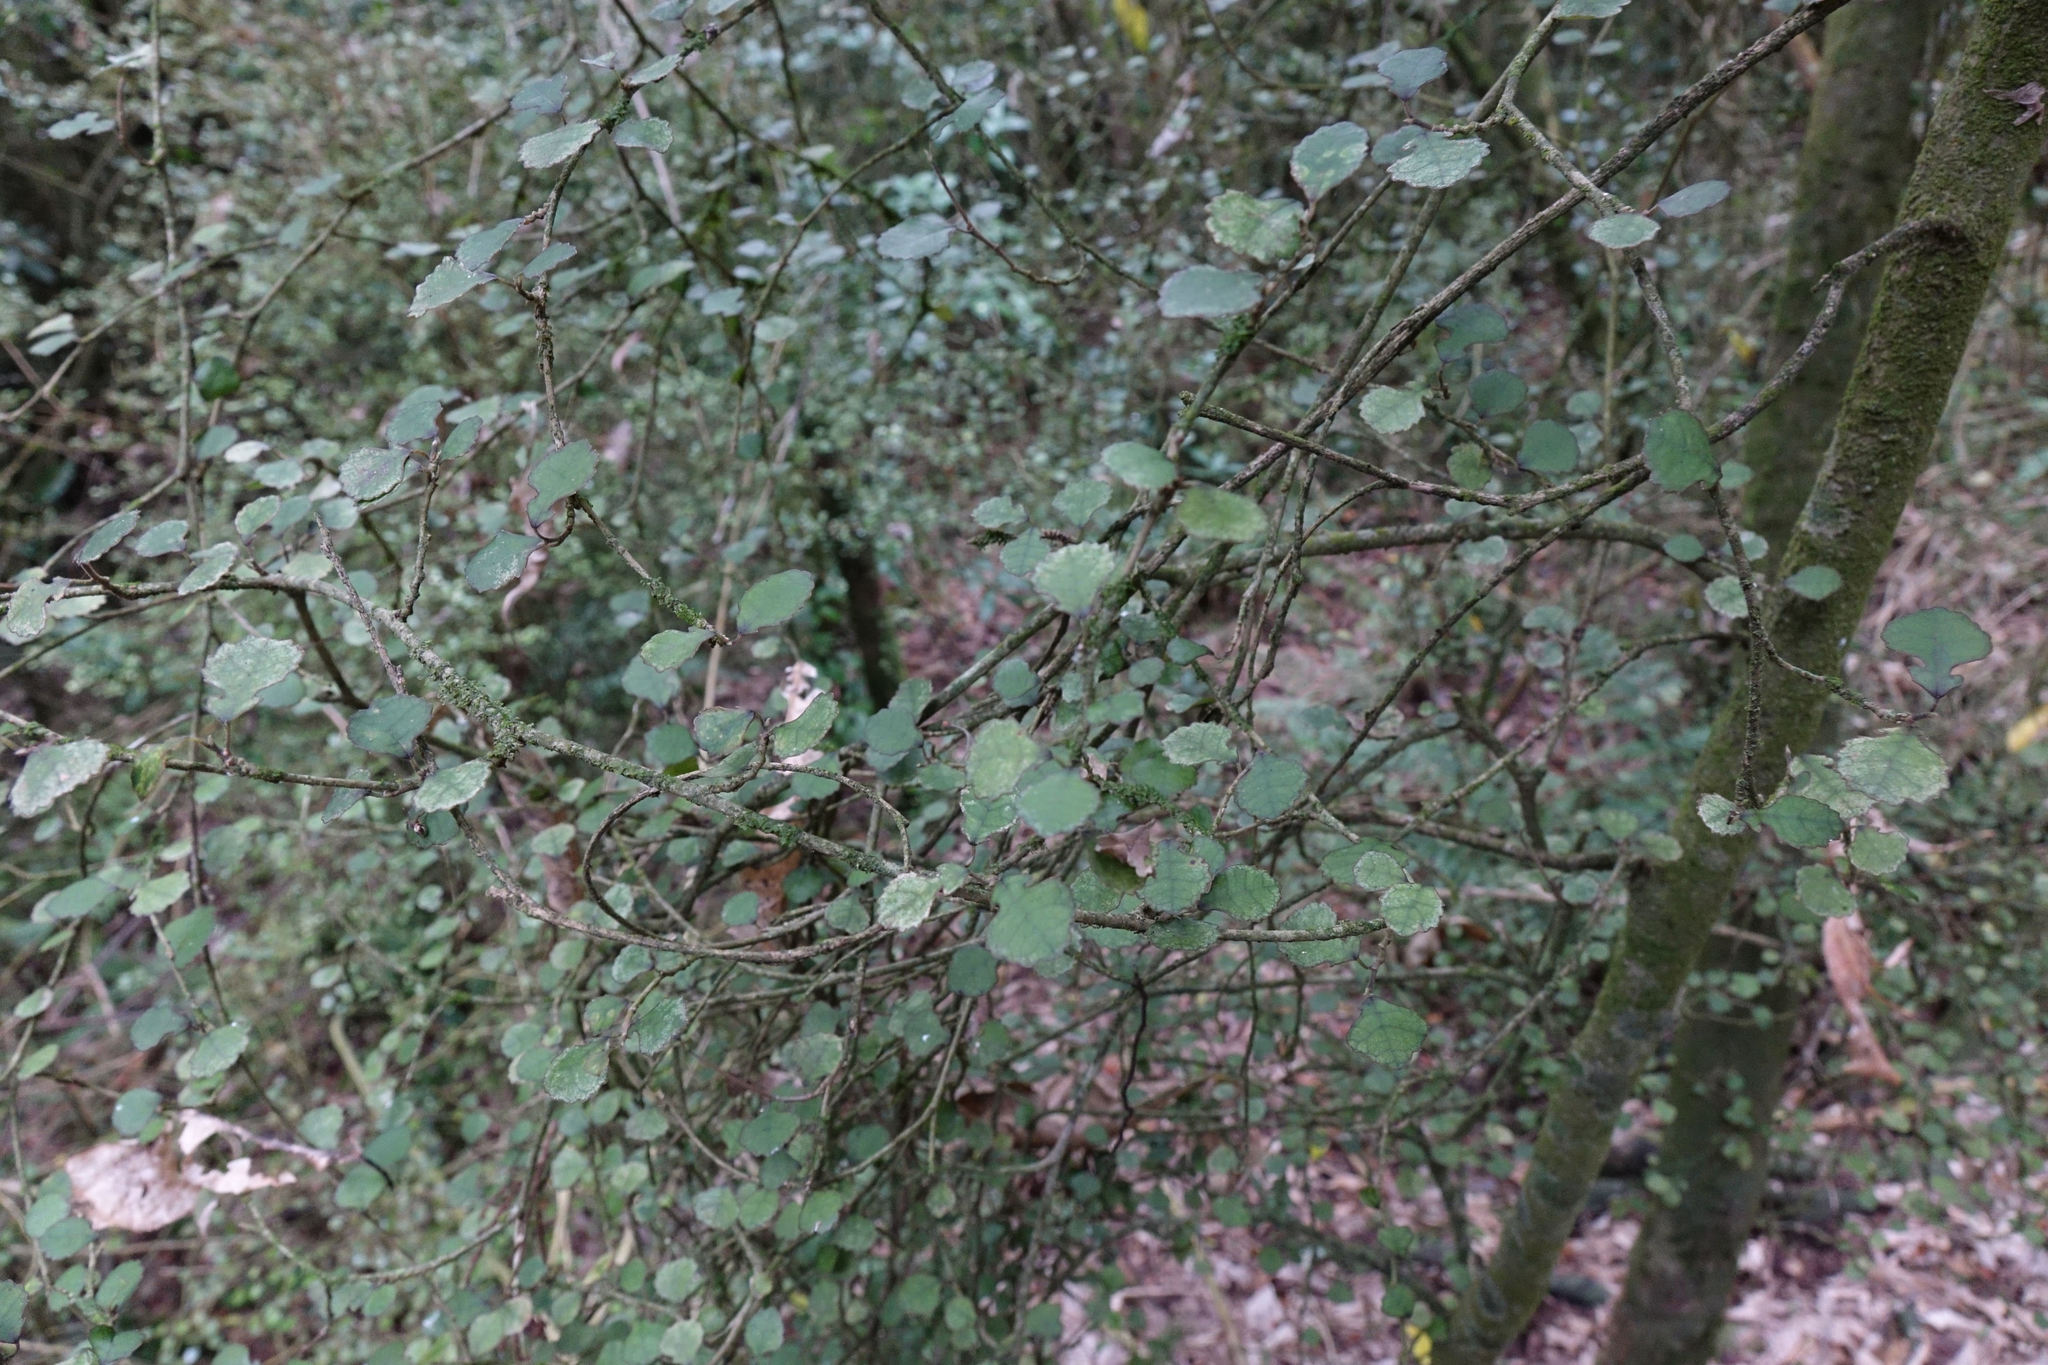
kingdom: Plantae
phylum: Tracheophyta
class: Magnoliopsida
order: Rosales
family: Moraceae
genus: Paratrophis
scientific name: Paratrophis microphylla
